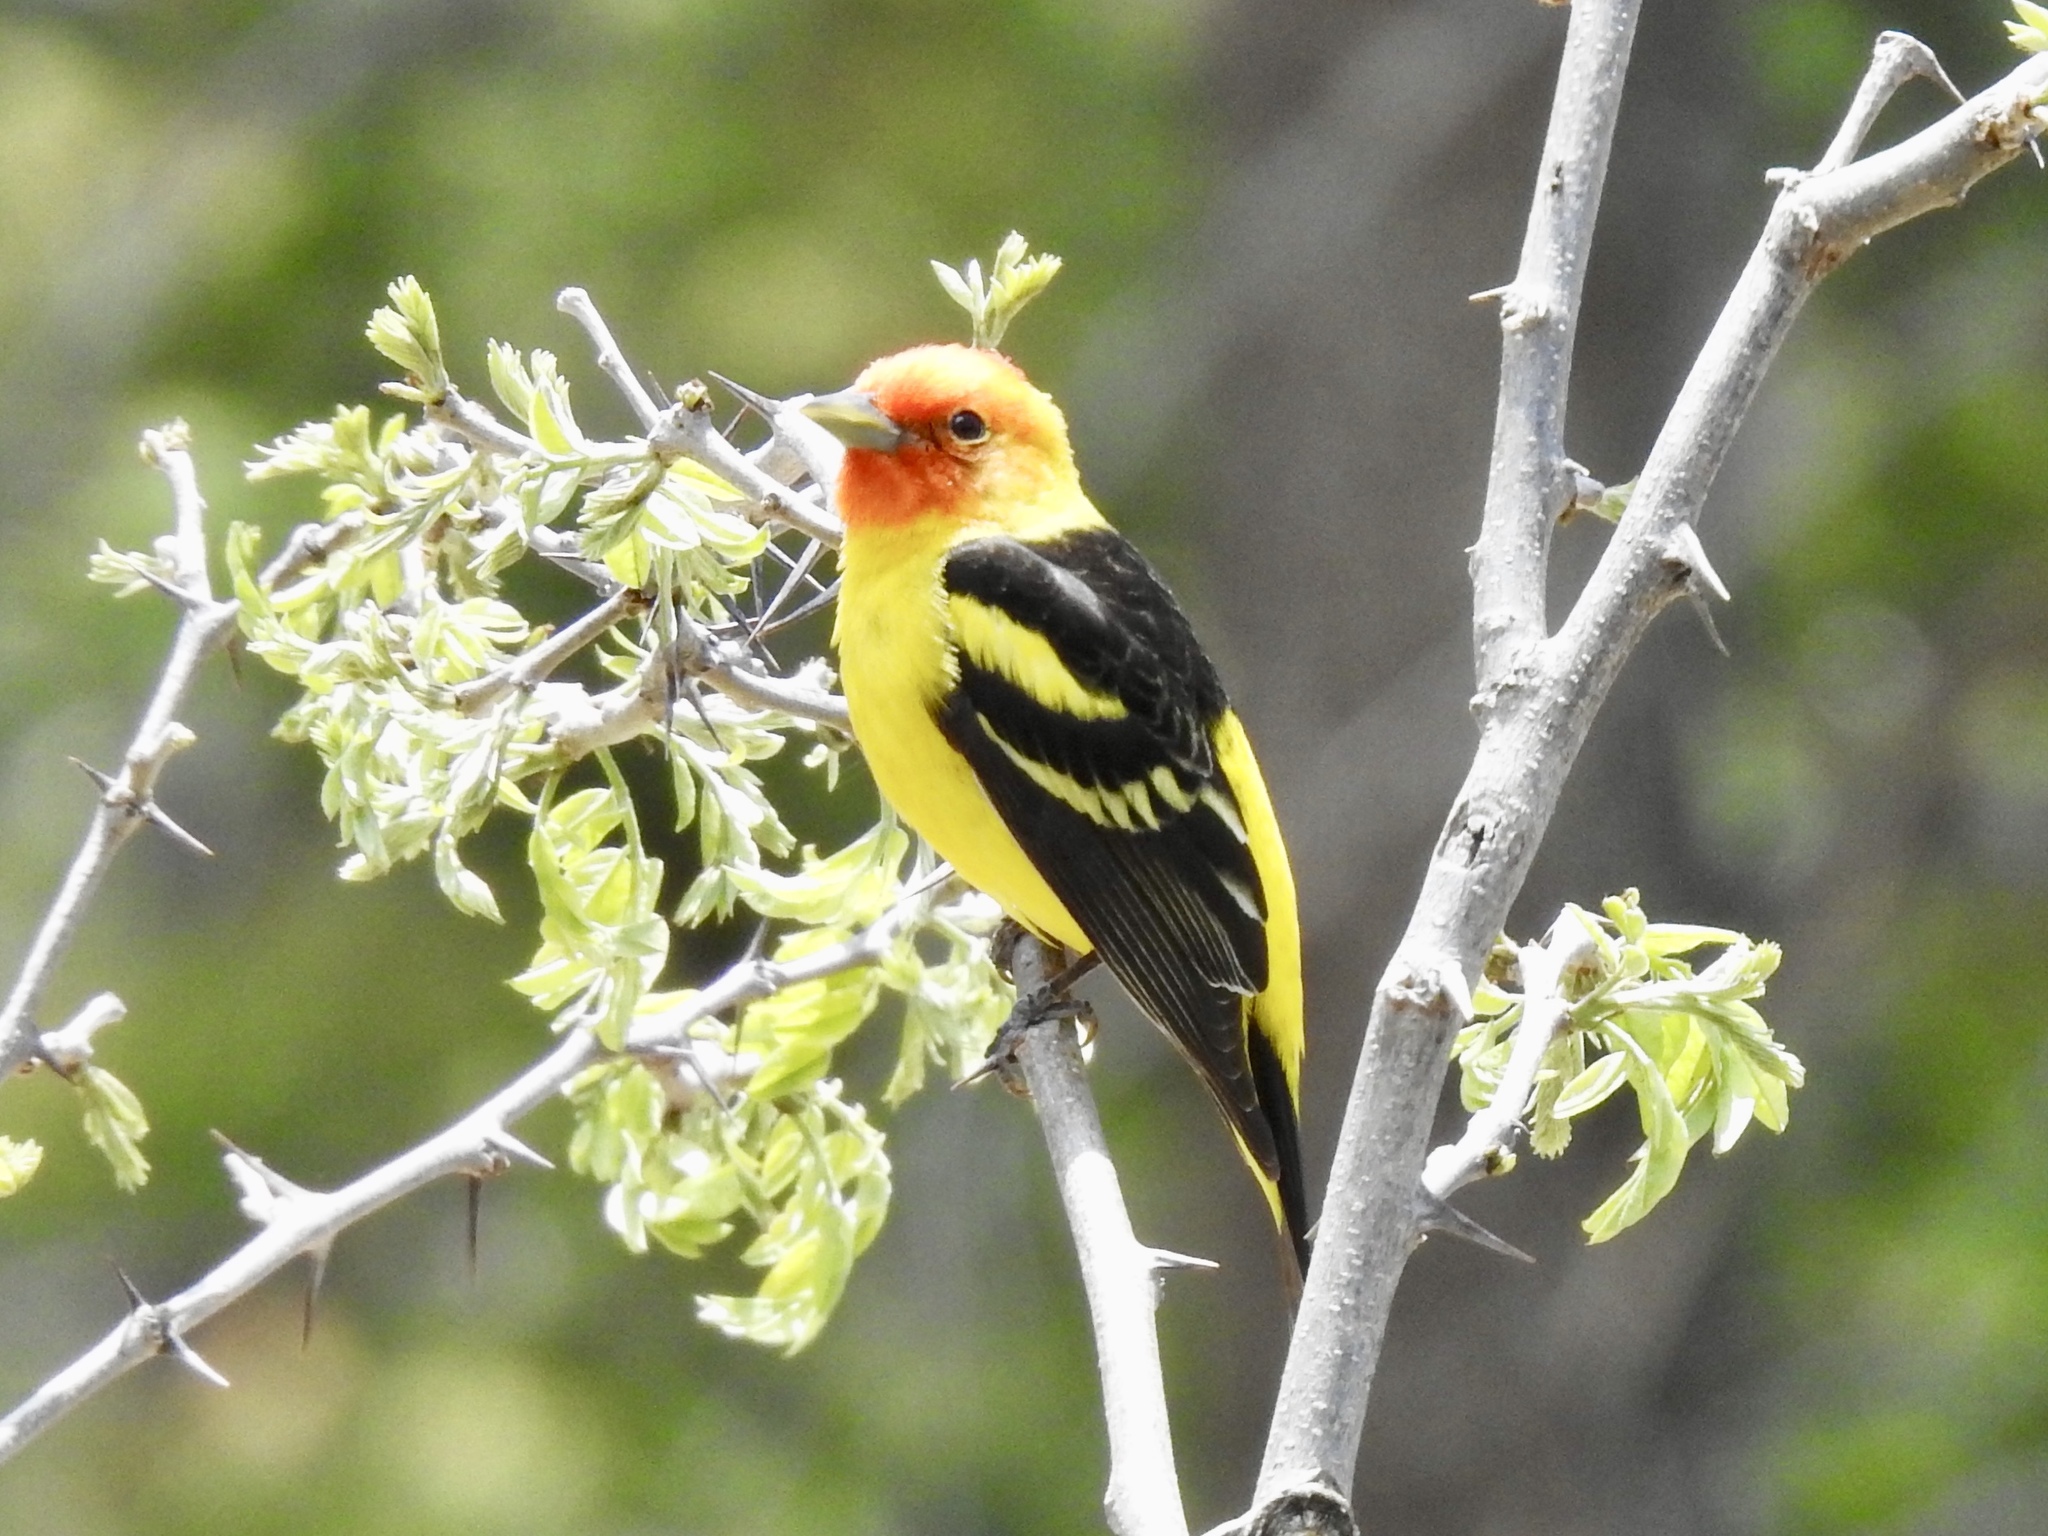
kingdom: Animalia
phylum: Chordata
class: Aves
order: Passeriformes
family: Cardinalidae
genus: Piranga
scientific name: Piranga ludoviciana
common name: Western tanager
